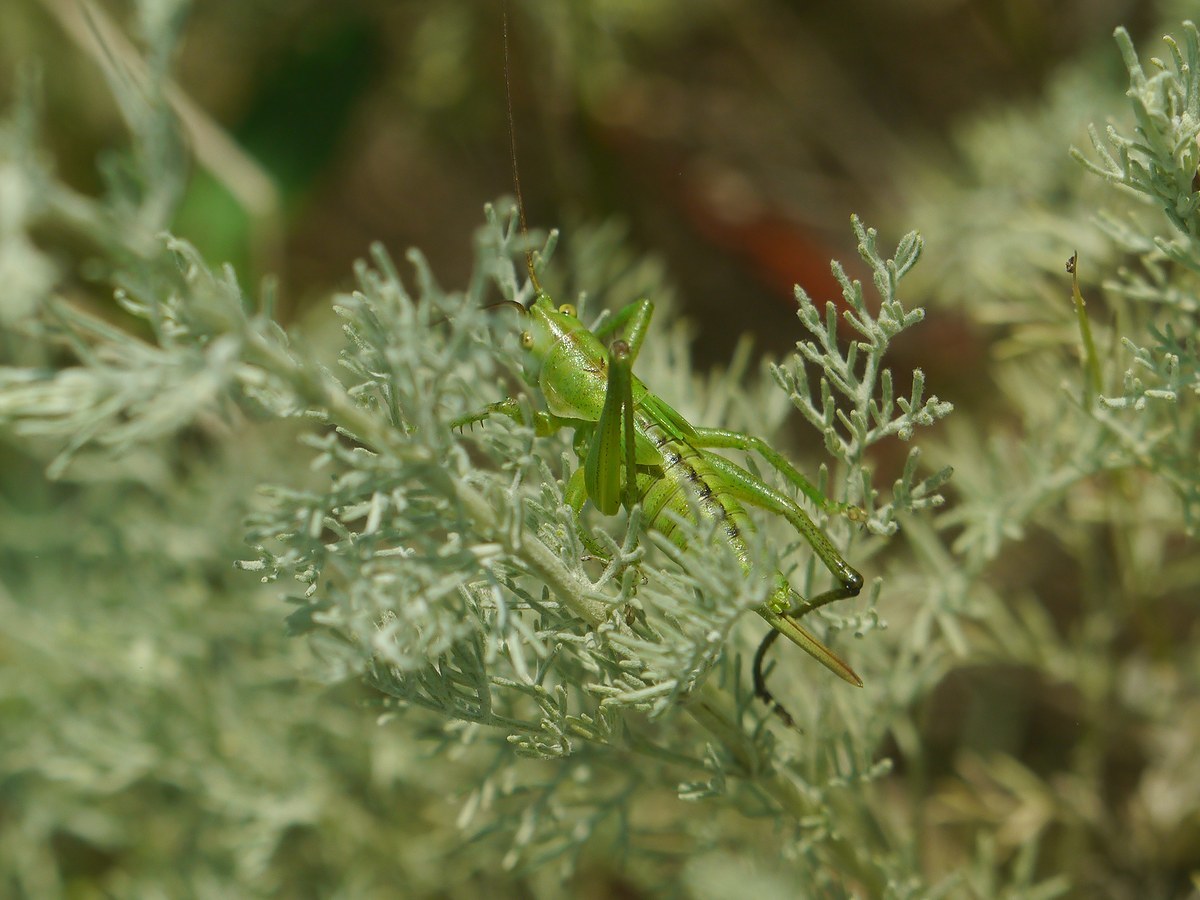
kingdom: Animalia
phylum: Arthropoda
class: Insecta
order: Orthoptera
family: Tettigoniidae
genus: Tettigonia
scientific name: Tettigonia viridissima
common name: Great green bush-cricket
